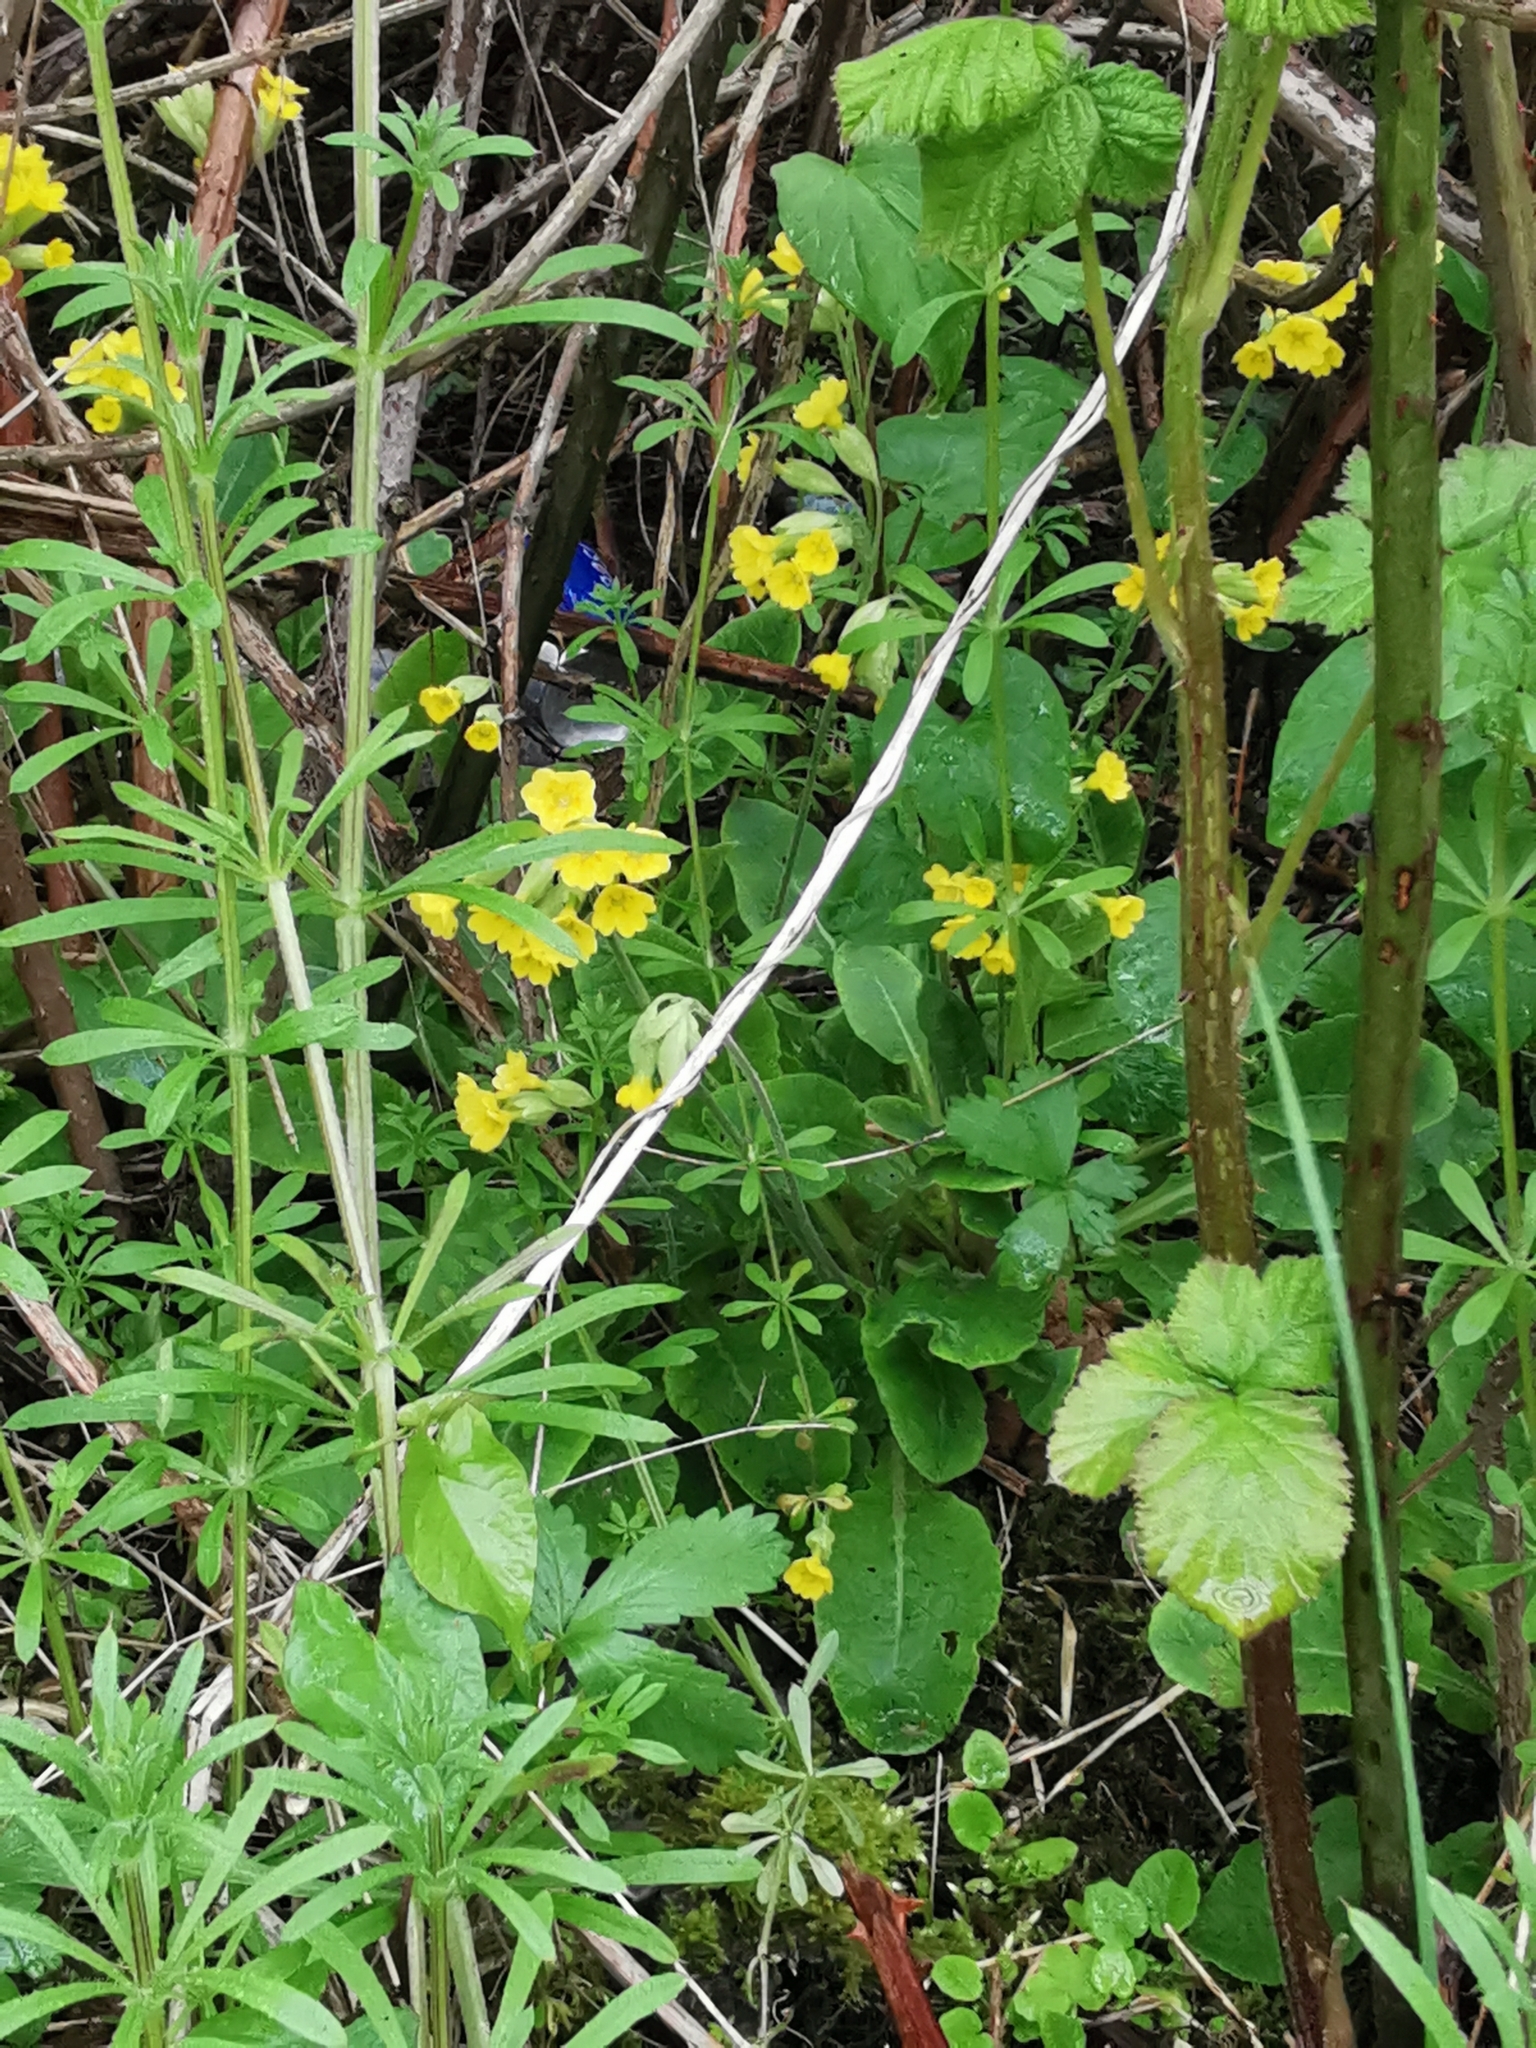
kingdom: Plantae
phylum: Tracheophyta
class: Magnoliopsida
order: Ericales
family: Primulaceae
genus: Primula
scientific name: Primula veris
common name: Cowslip
